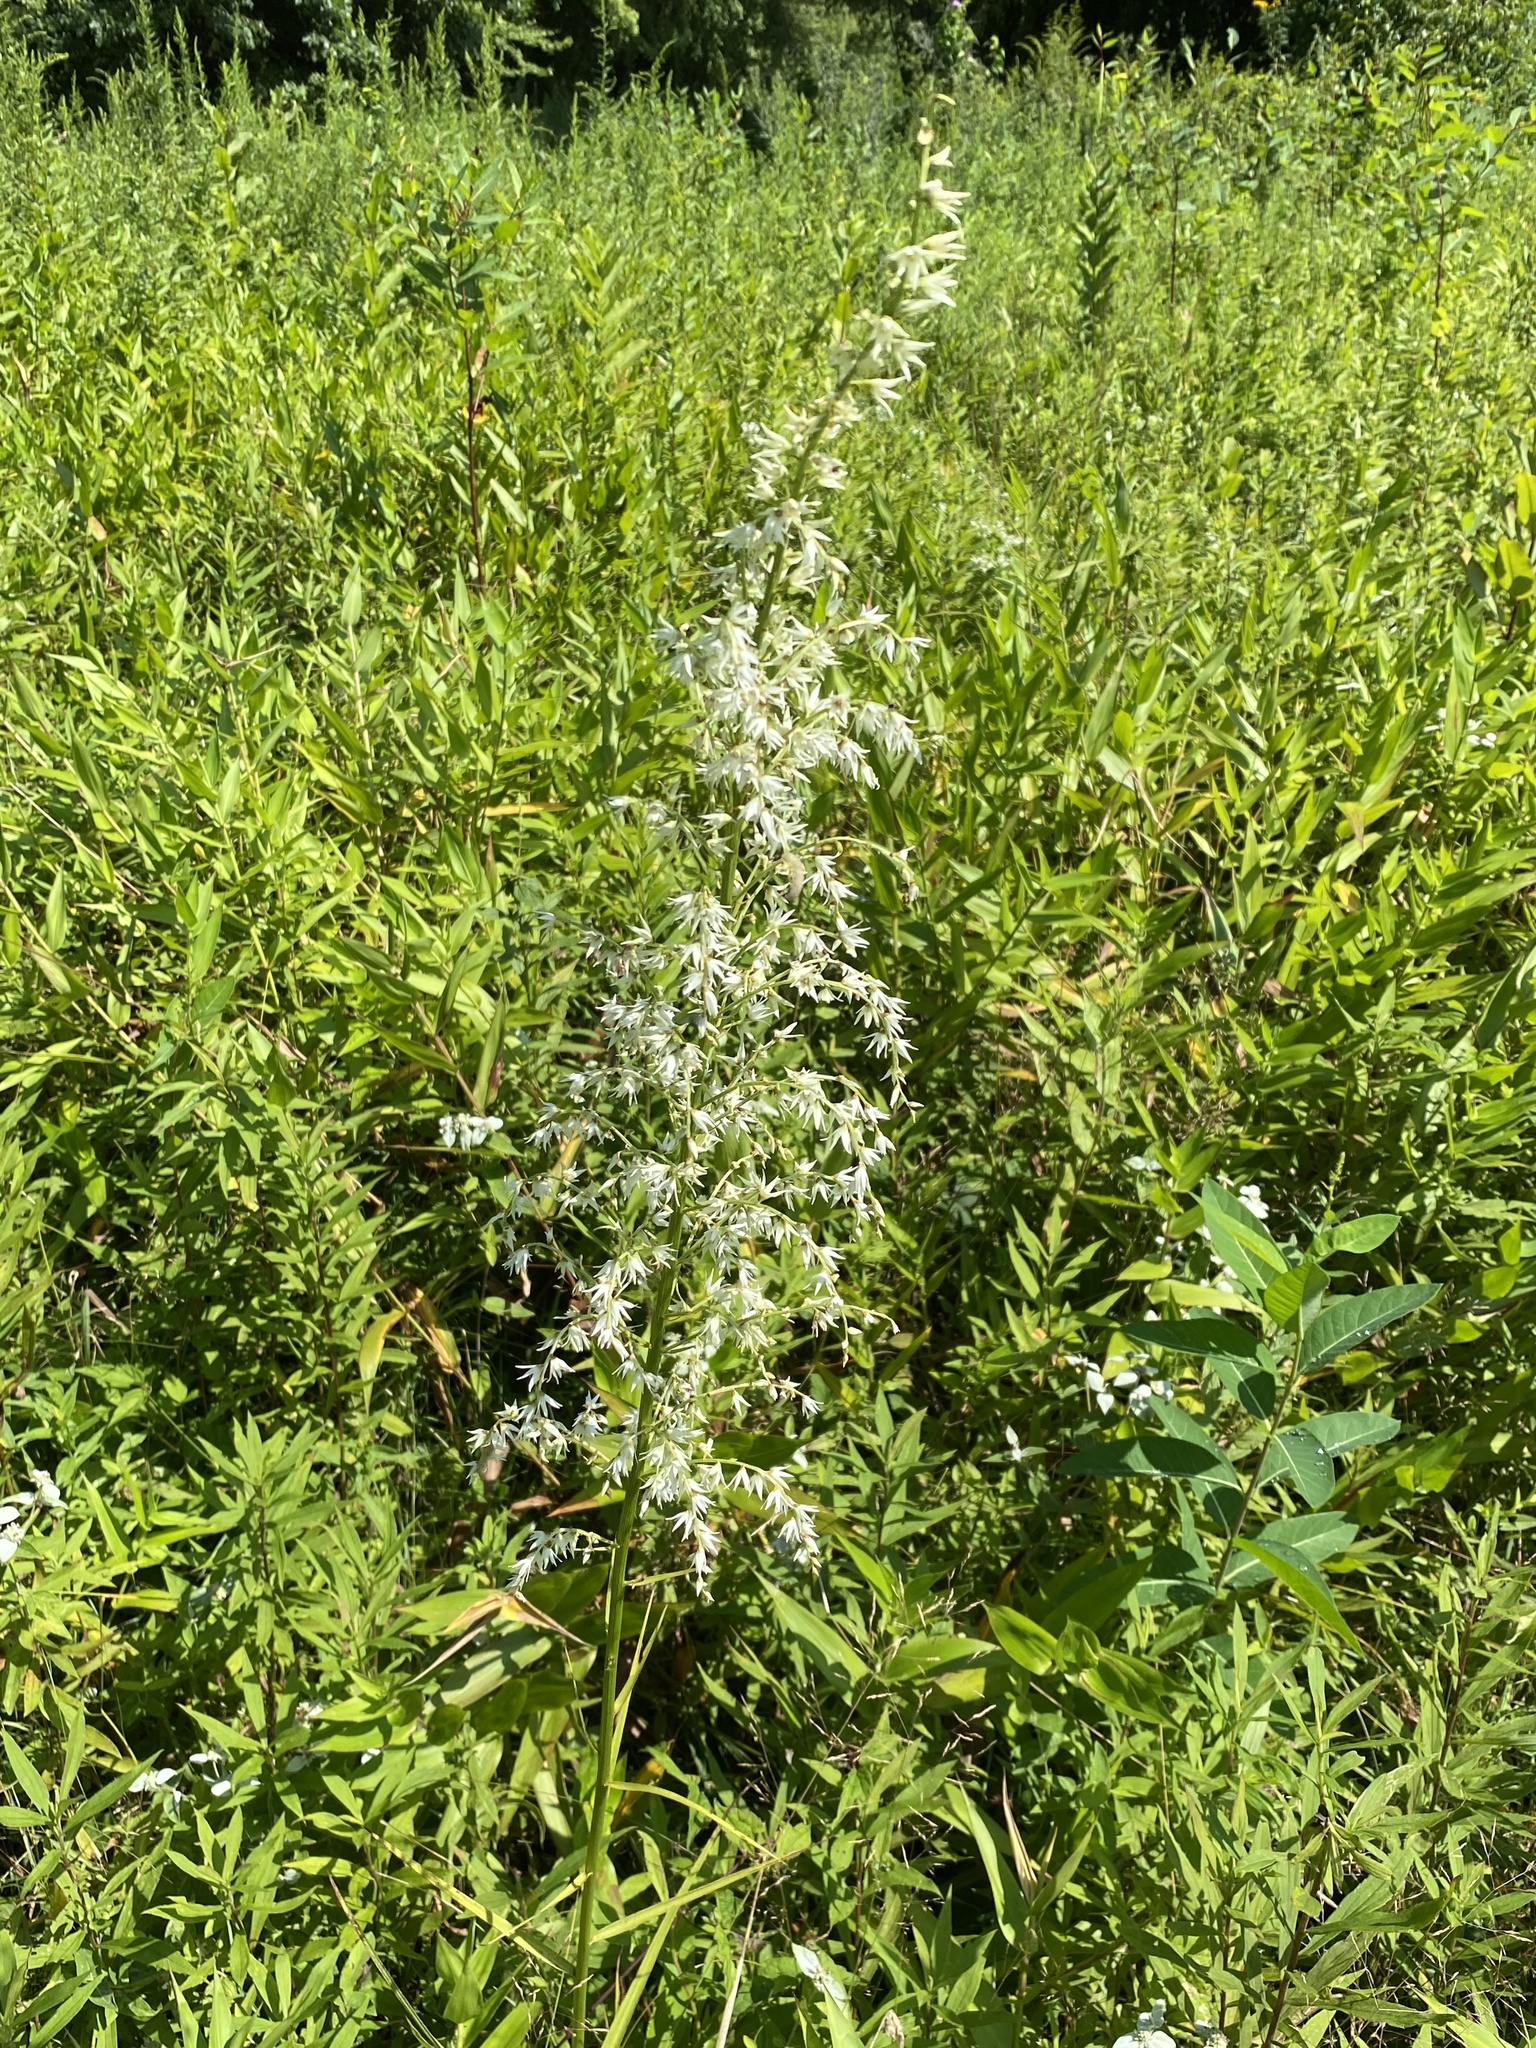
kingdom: Plantae
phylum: Tracheophyta
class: Liliopsida
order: Liliales
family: Melanthiaceae
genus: Stenanthium
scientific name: Stenanthium gramineum
